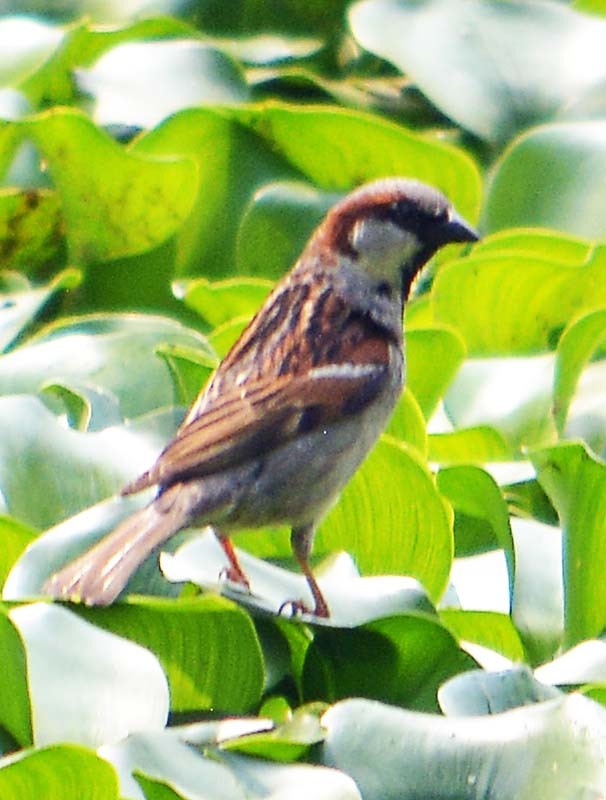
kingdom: Animalia
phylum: Chordata
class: Aves
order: Passeriformes
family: Passeridae
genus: Passer
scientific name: Passer domesticus
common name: House sparrow
